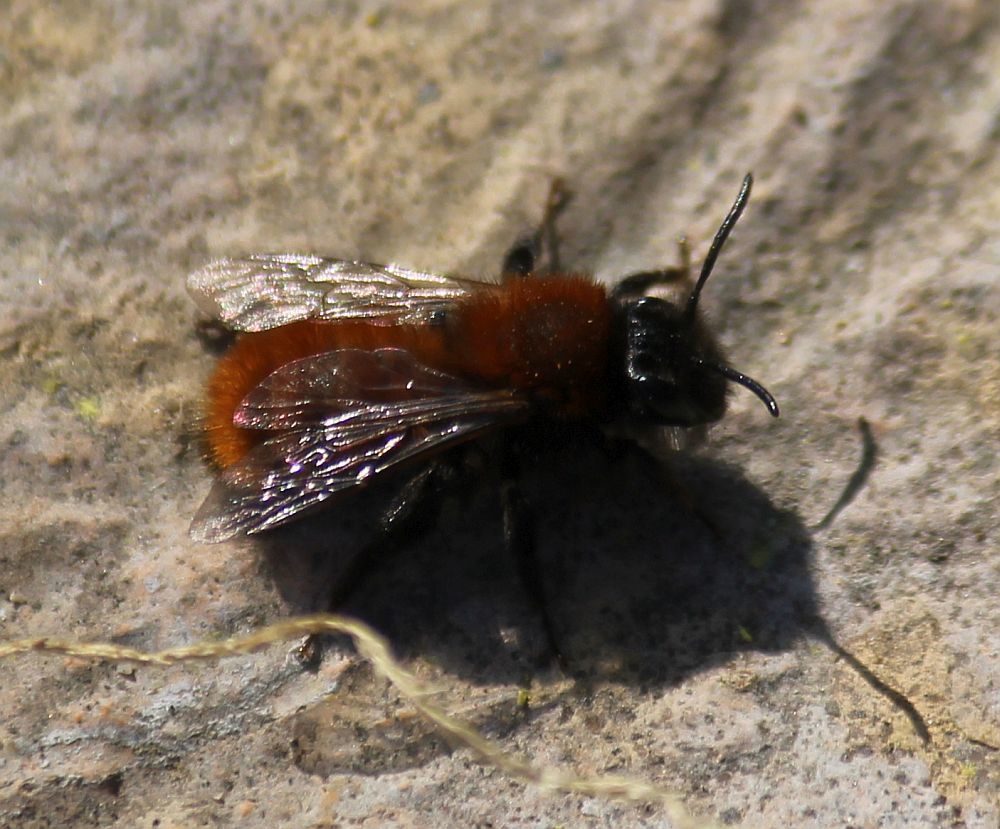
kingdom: Animalia
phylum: Arthropoda
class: Insecta
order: Hymenoptera
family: Andrenidae
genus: Andrena
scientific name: Andrena fulva
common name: Tawny mining bee
